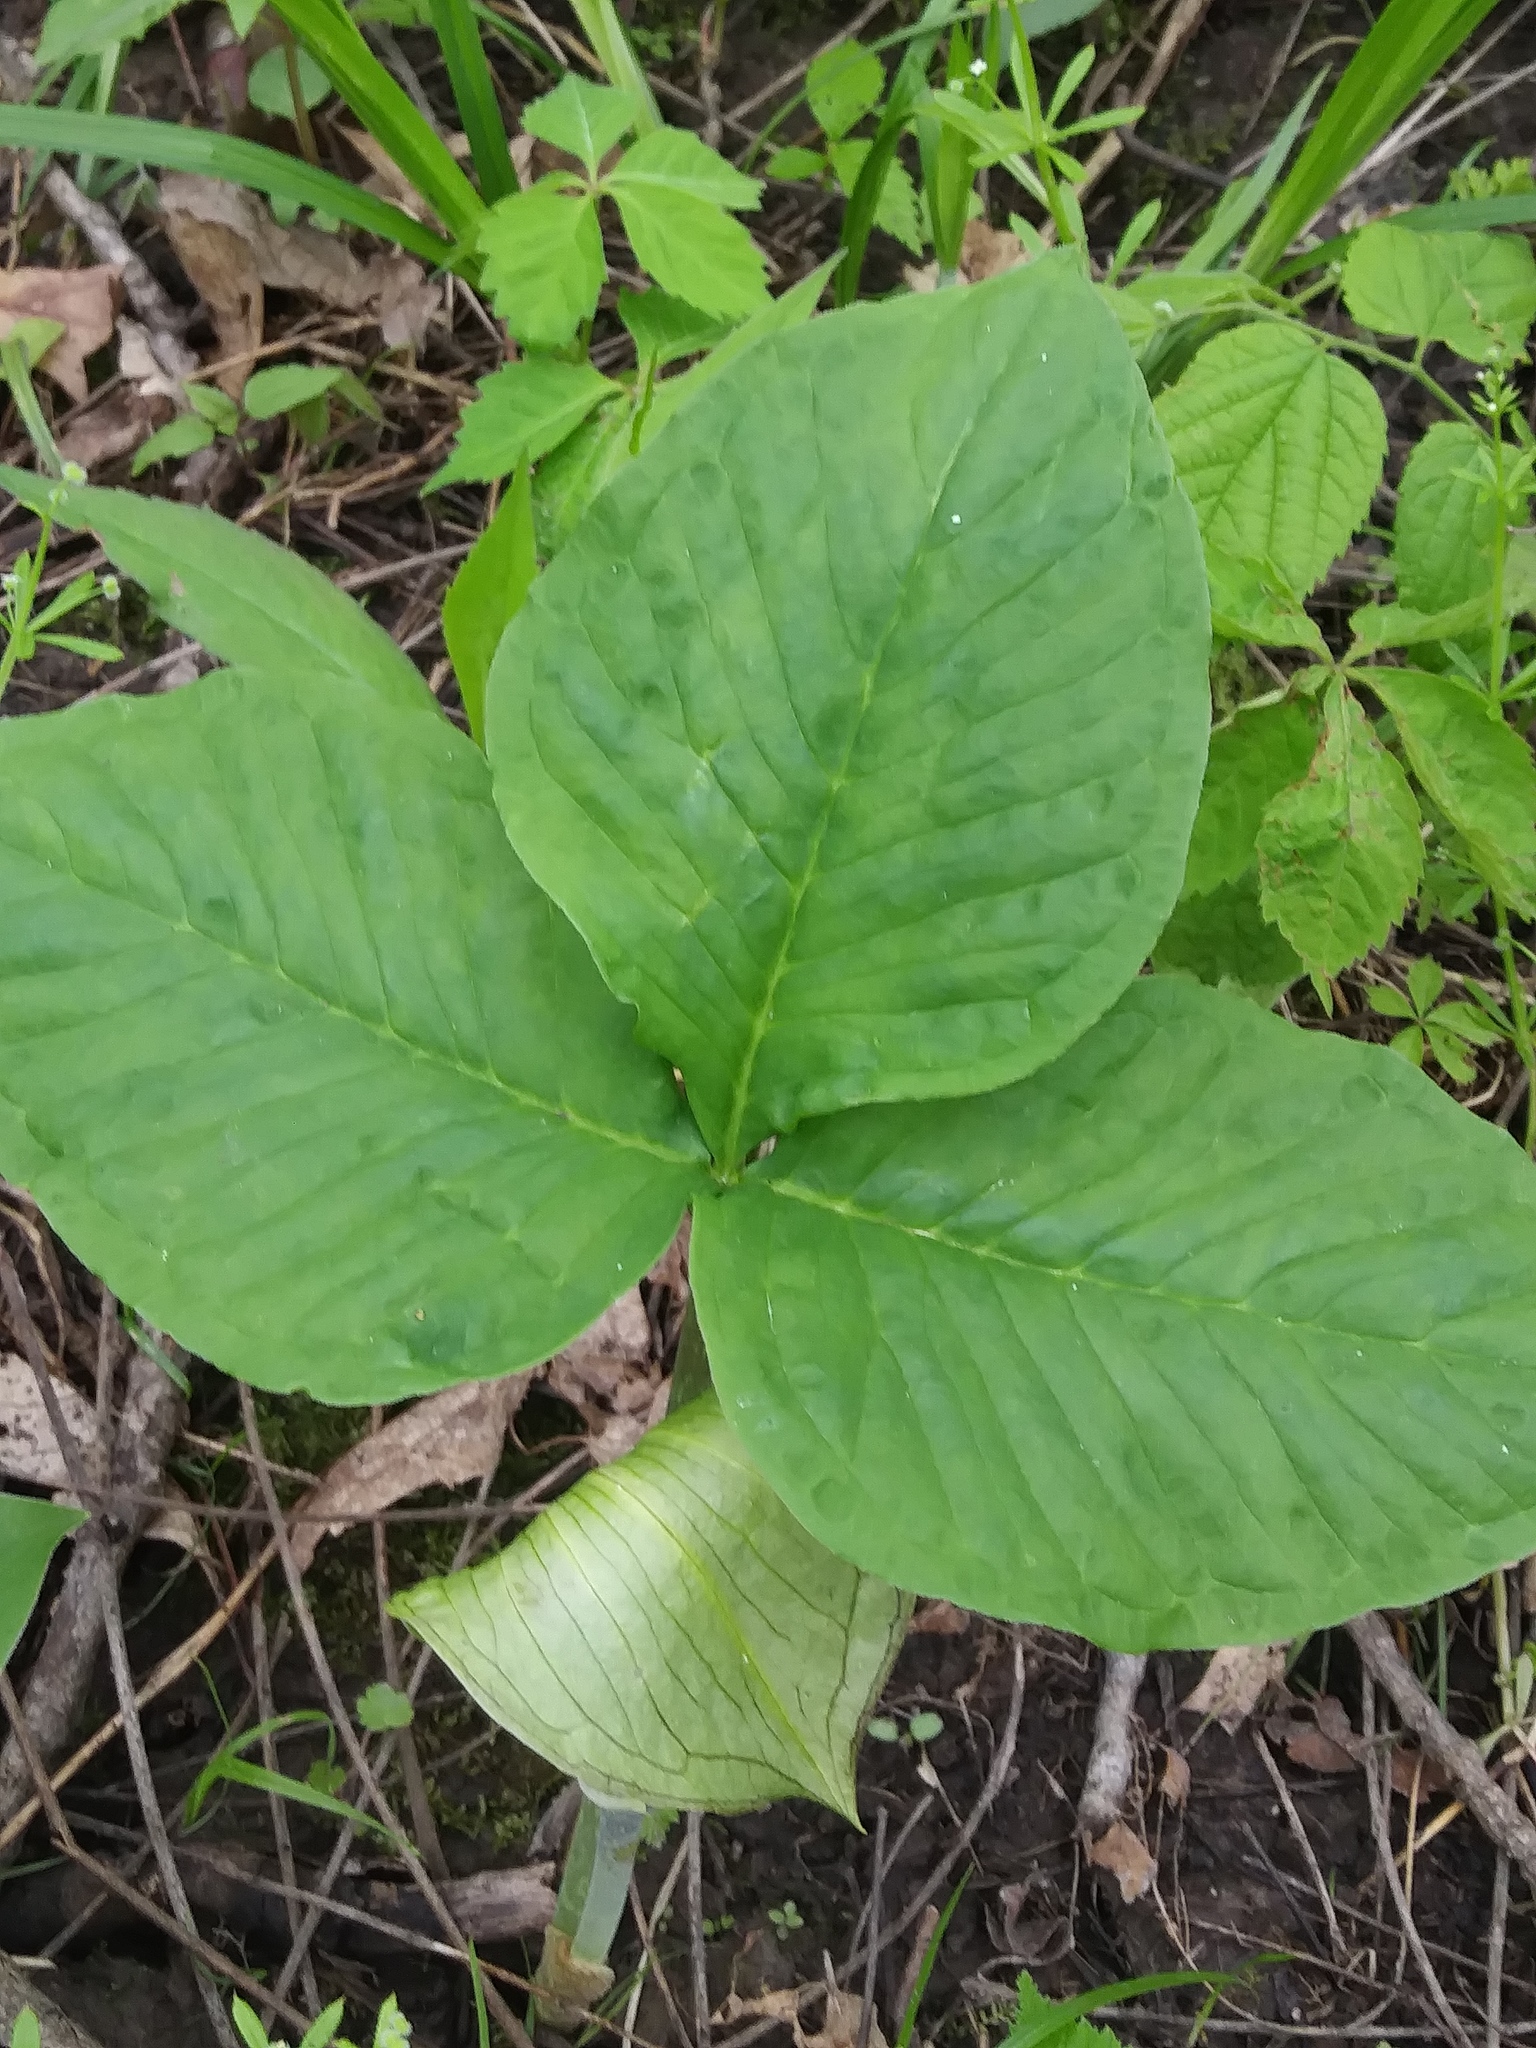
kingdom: Plantae
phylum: Tracheophyta
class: Liliopsida
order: Alismatales
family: Araceae
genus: Arisaema
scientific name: Arisaema triphyllum
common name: Jack-in-the-pulpit
